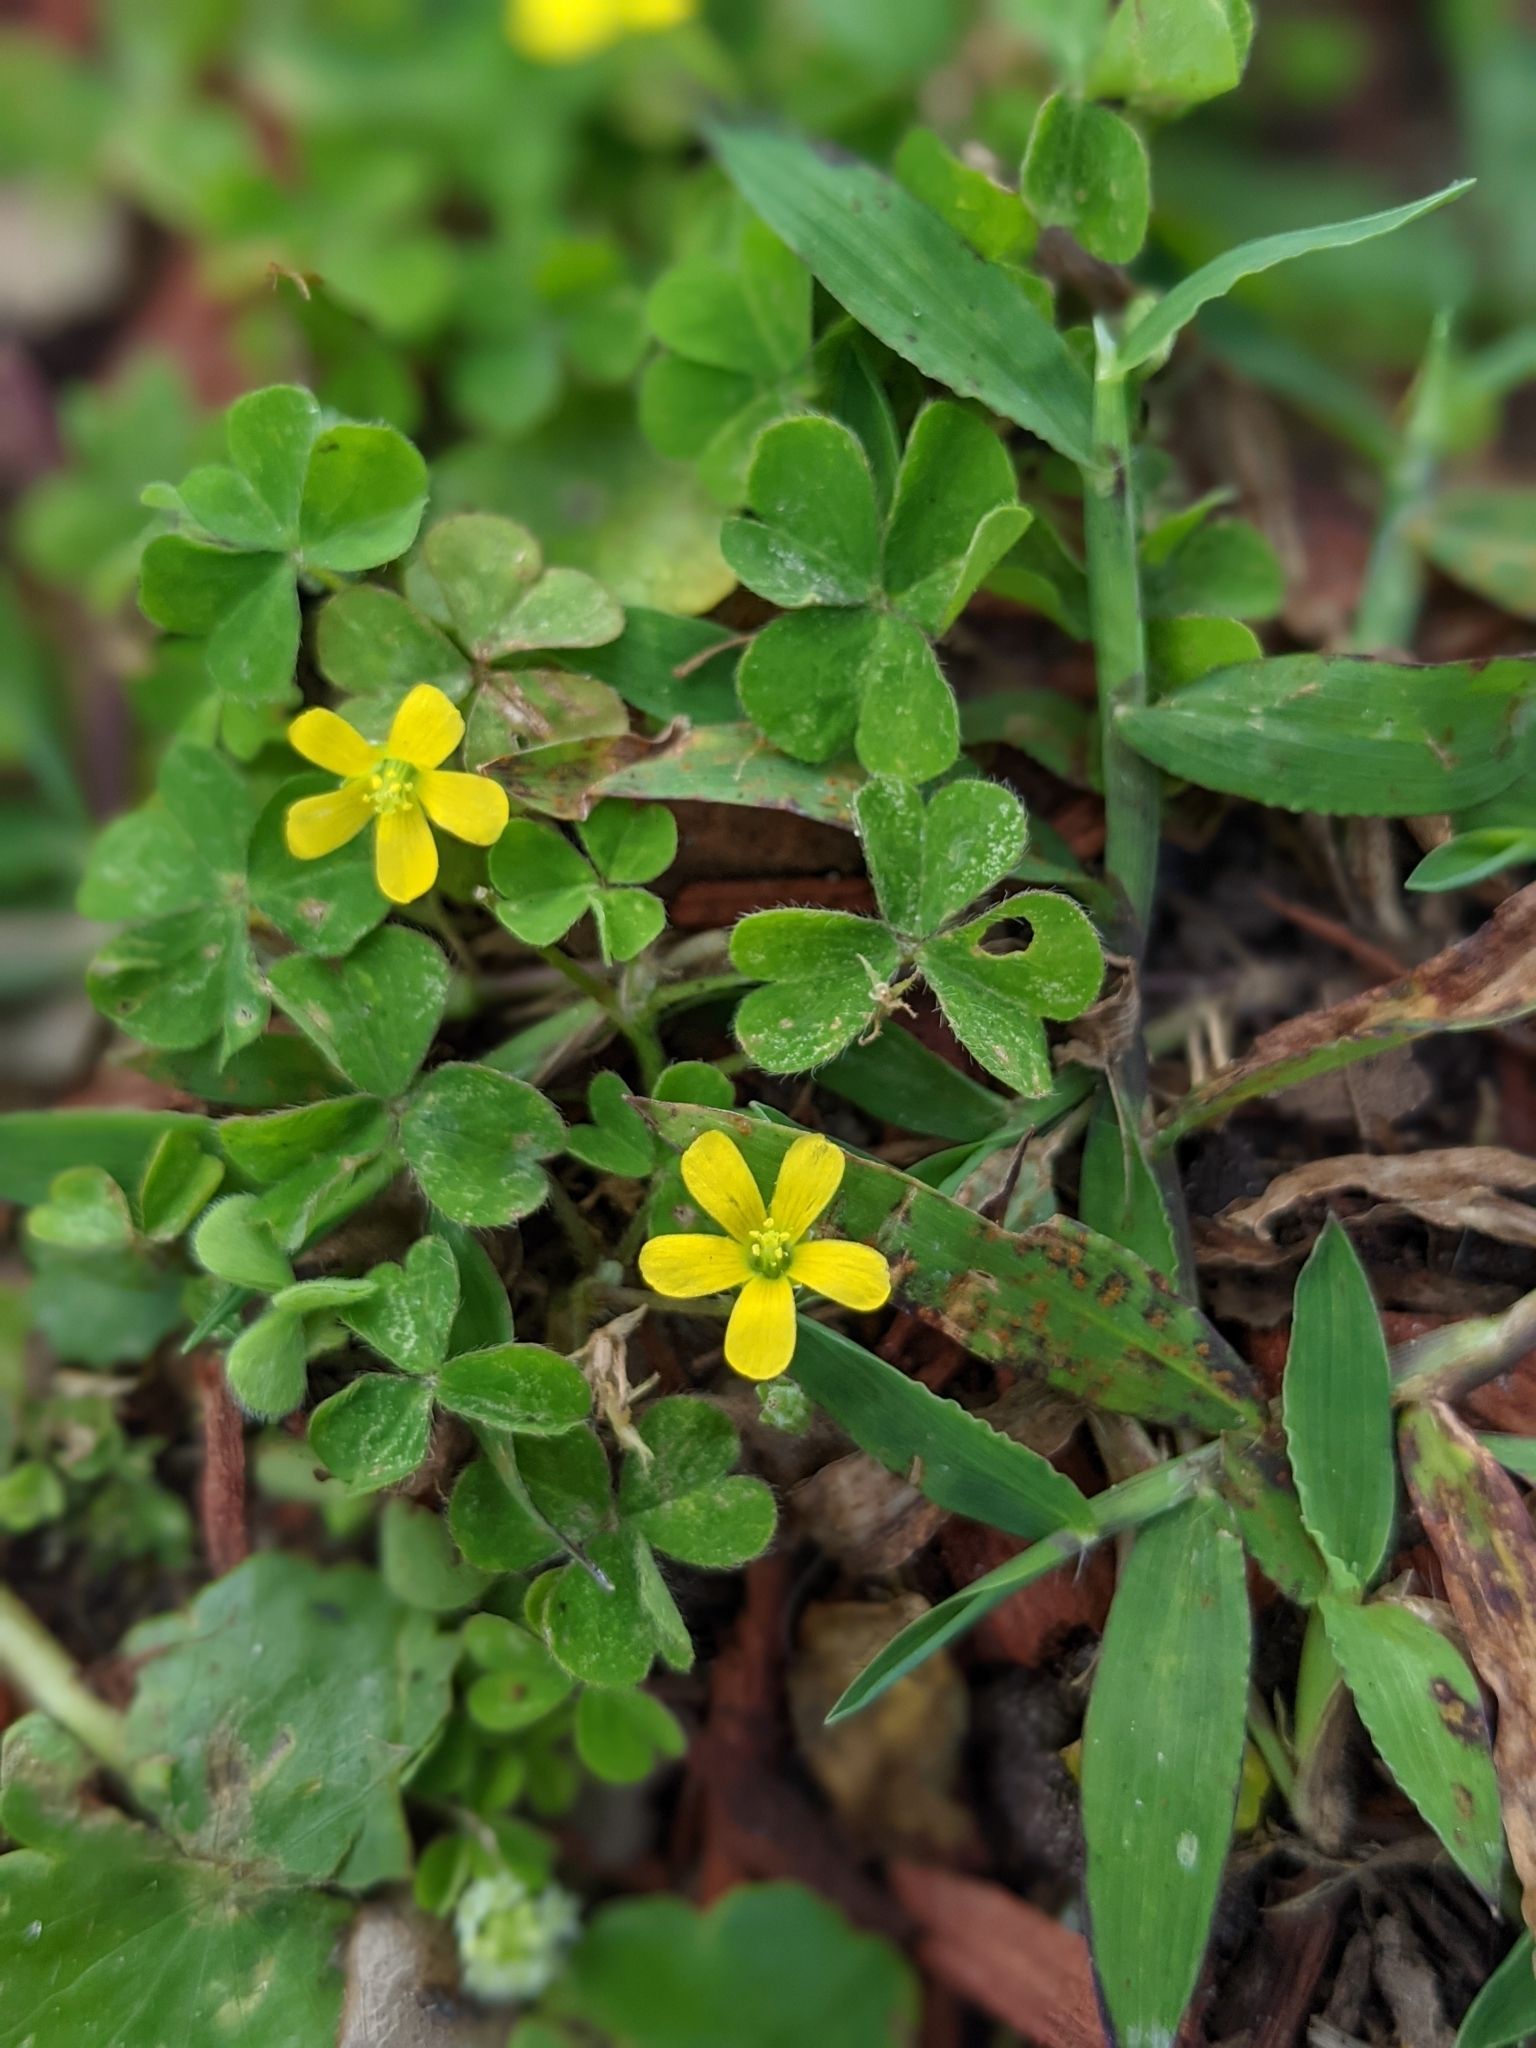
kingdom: Plantae
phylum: Tracheophyta
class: Magnoliopsida
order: Oxalidales
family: Oxalidaceae
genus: Oxalis
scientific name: Oxalis corniculata
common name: Procumbent yellow-sorrel
